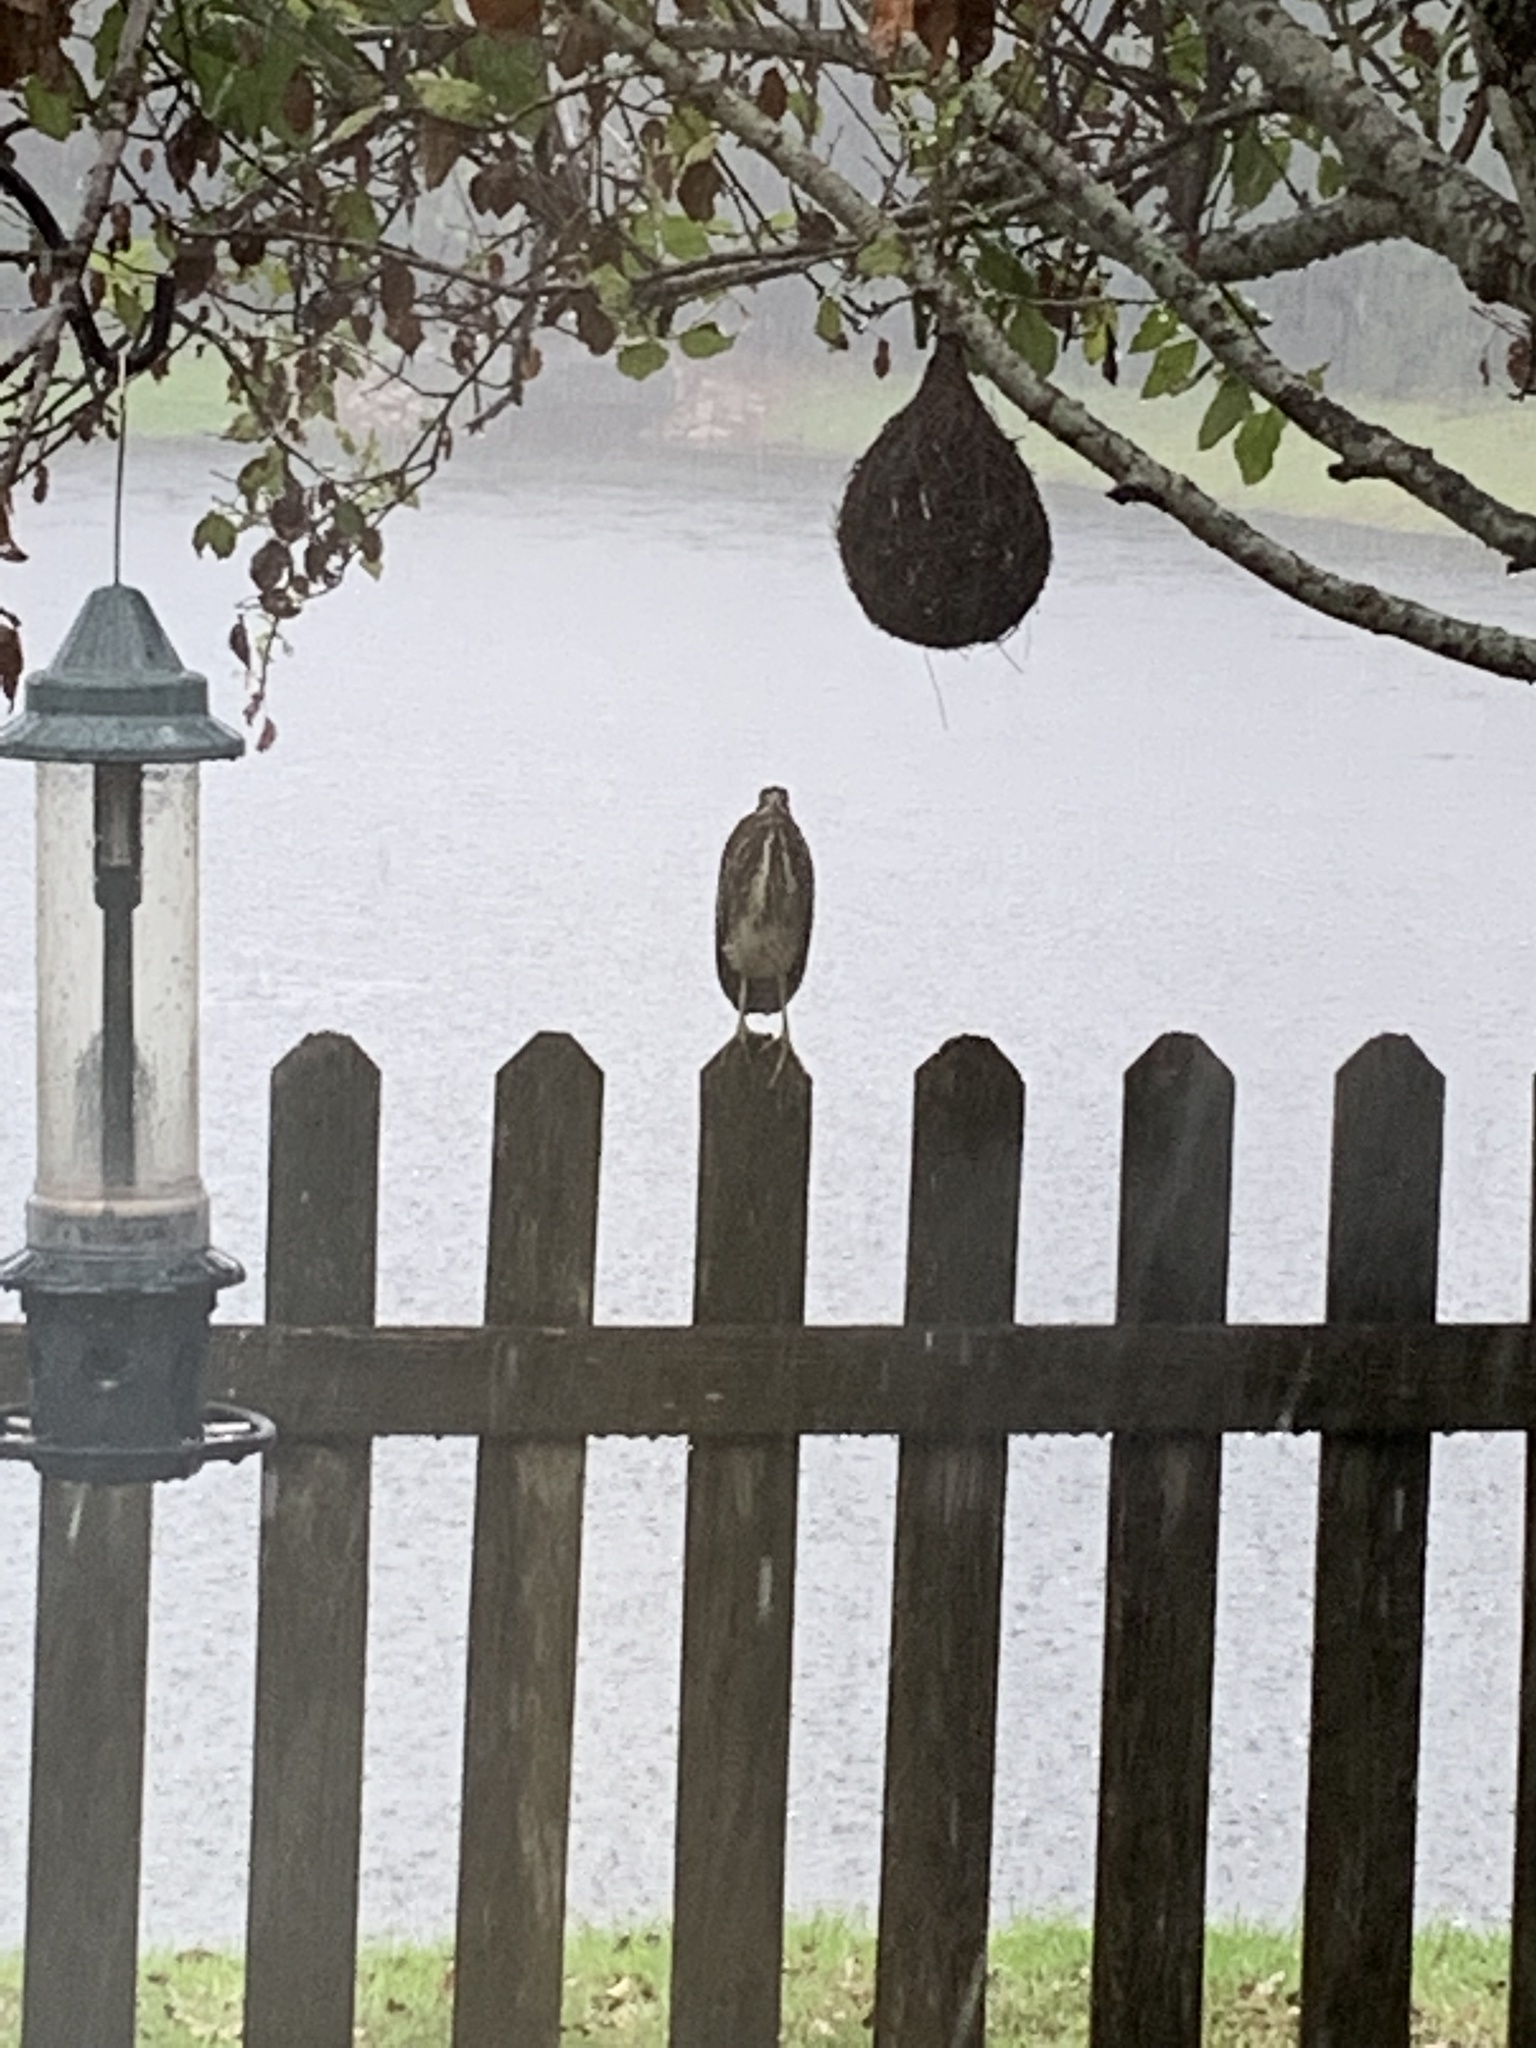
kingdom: Animalia
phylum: Chordata
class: Aves
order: Pelecaniformes
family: Ardeidae
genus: Butorides
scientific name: Butorides virescens
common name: Green heron
